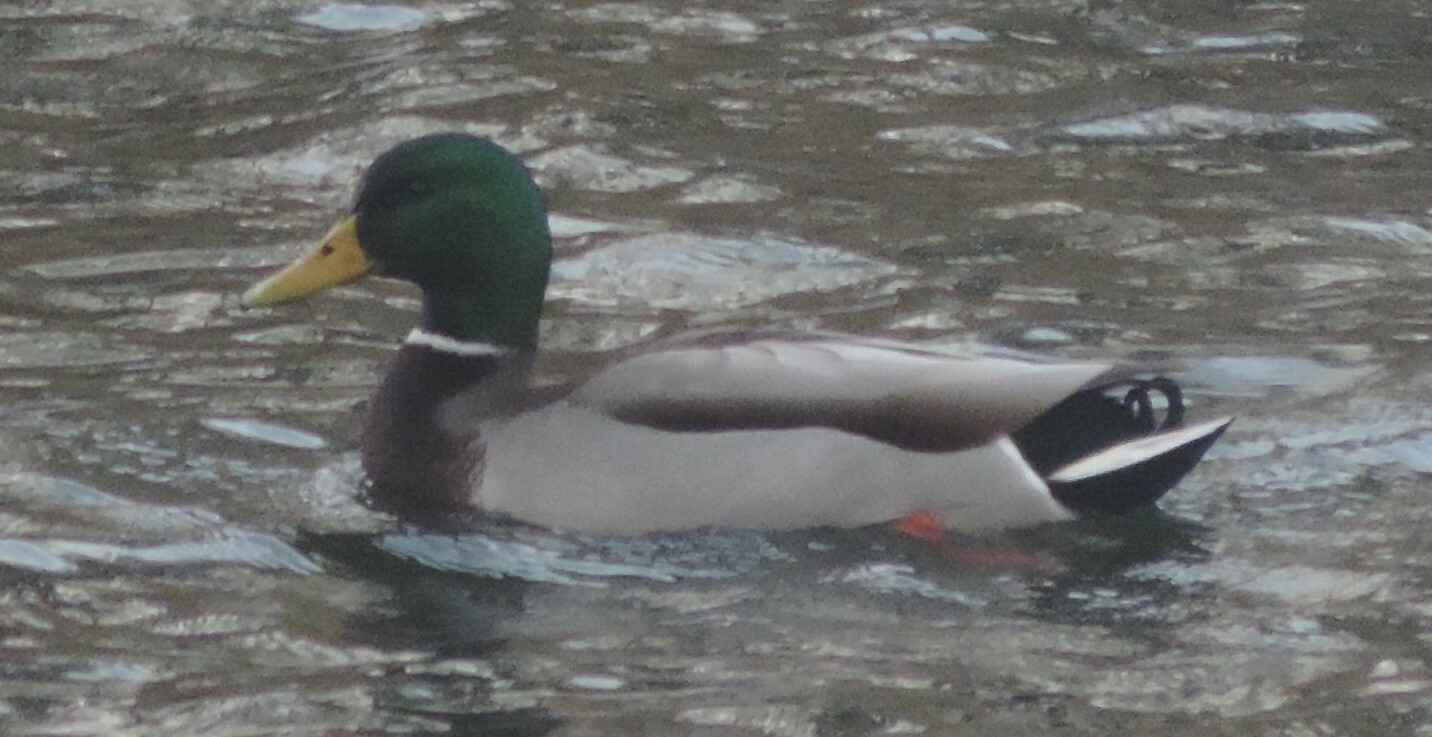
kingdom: Animalia
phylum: Chordata
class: Aves
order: Anseriformes
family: Anatidae
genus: Anas
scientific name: Anas platyrhynchos
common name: Mallard
